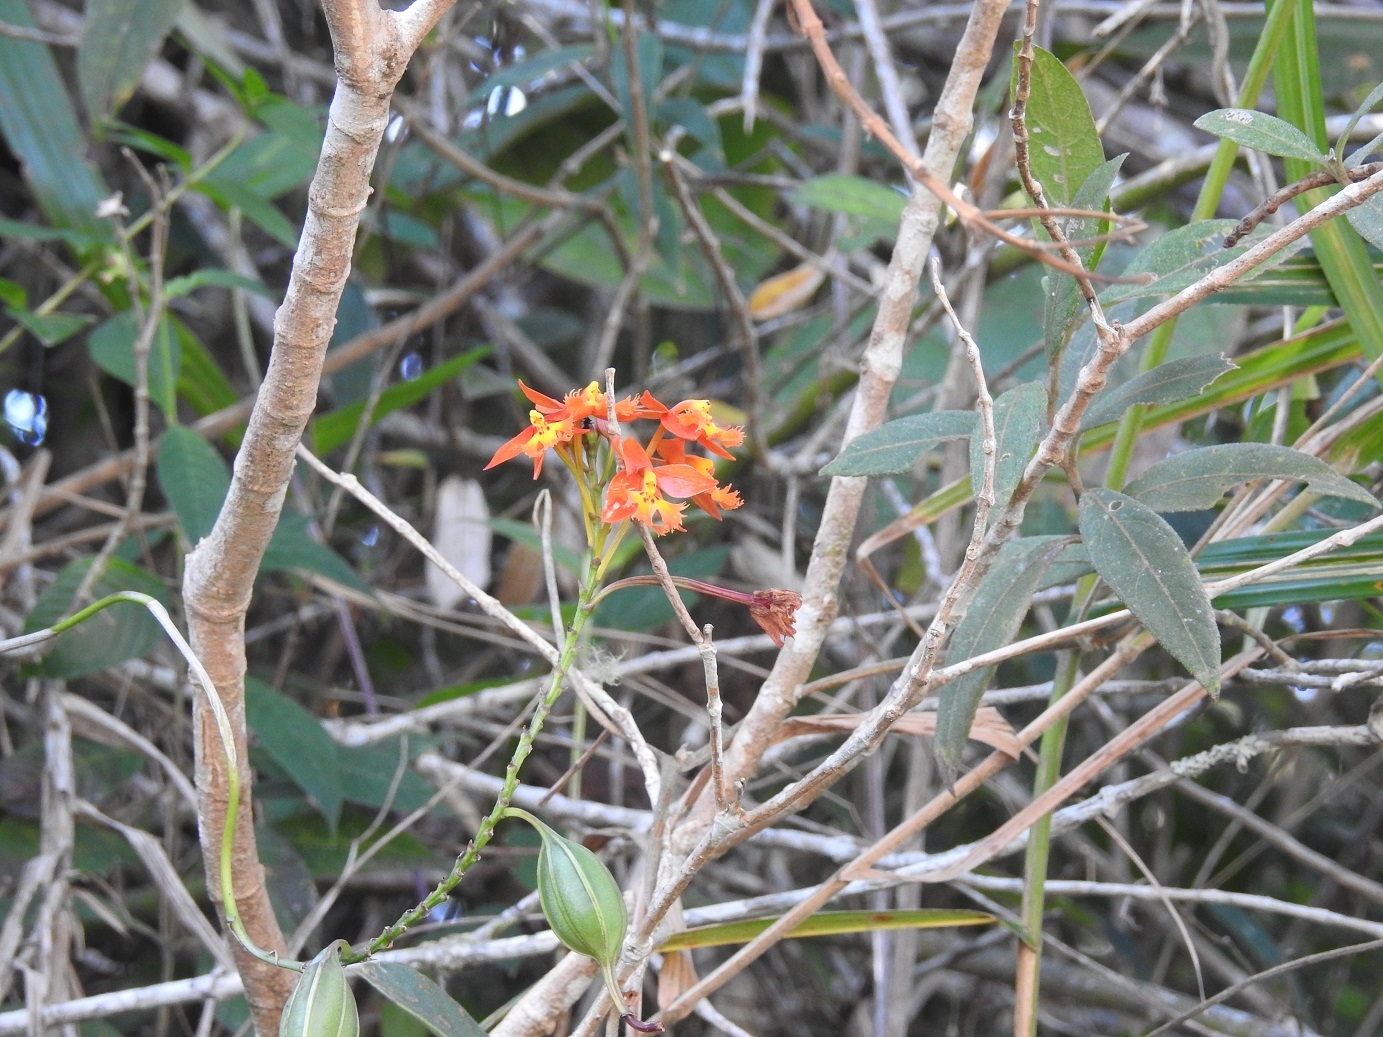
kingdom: Plantae
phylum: Tracheophyta
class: Liliopsida
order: Asparagales
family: Orchidaceae
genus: Epidendrum
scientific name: Epidendrum radicans
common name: Fire star orchid
